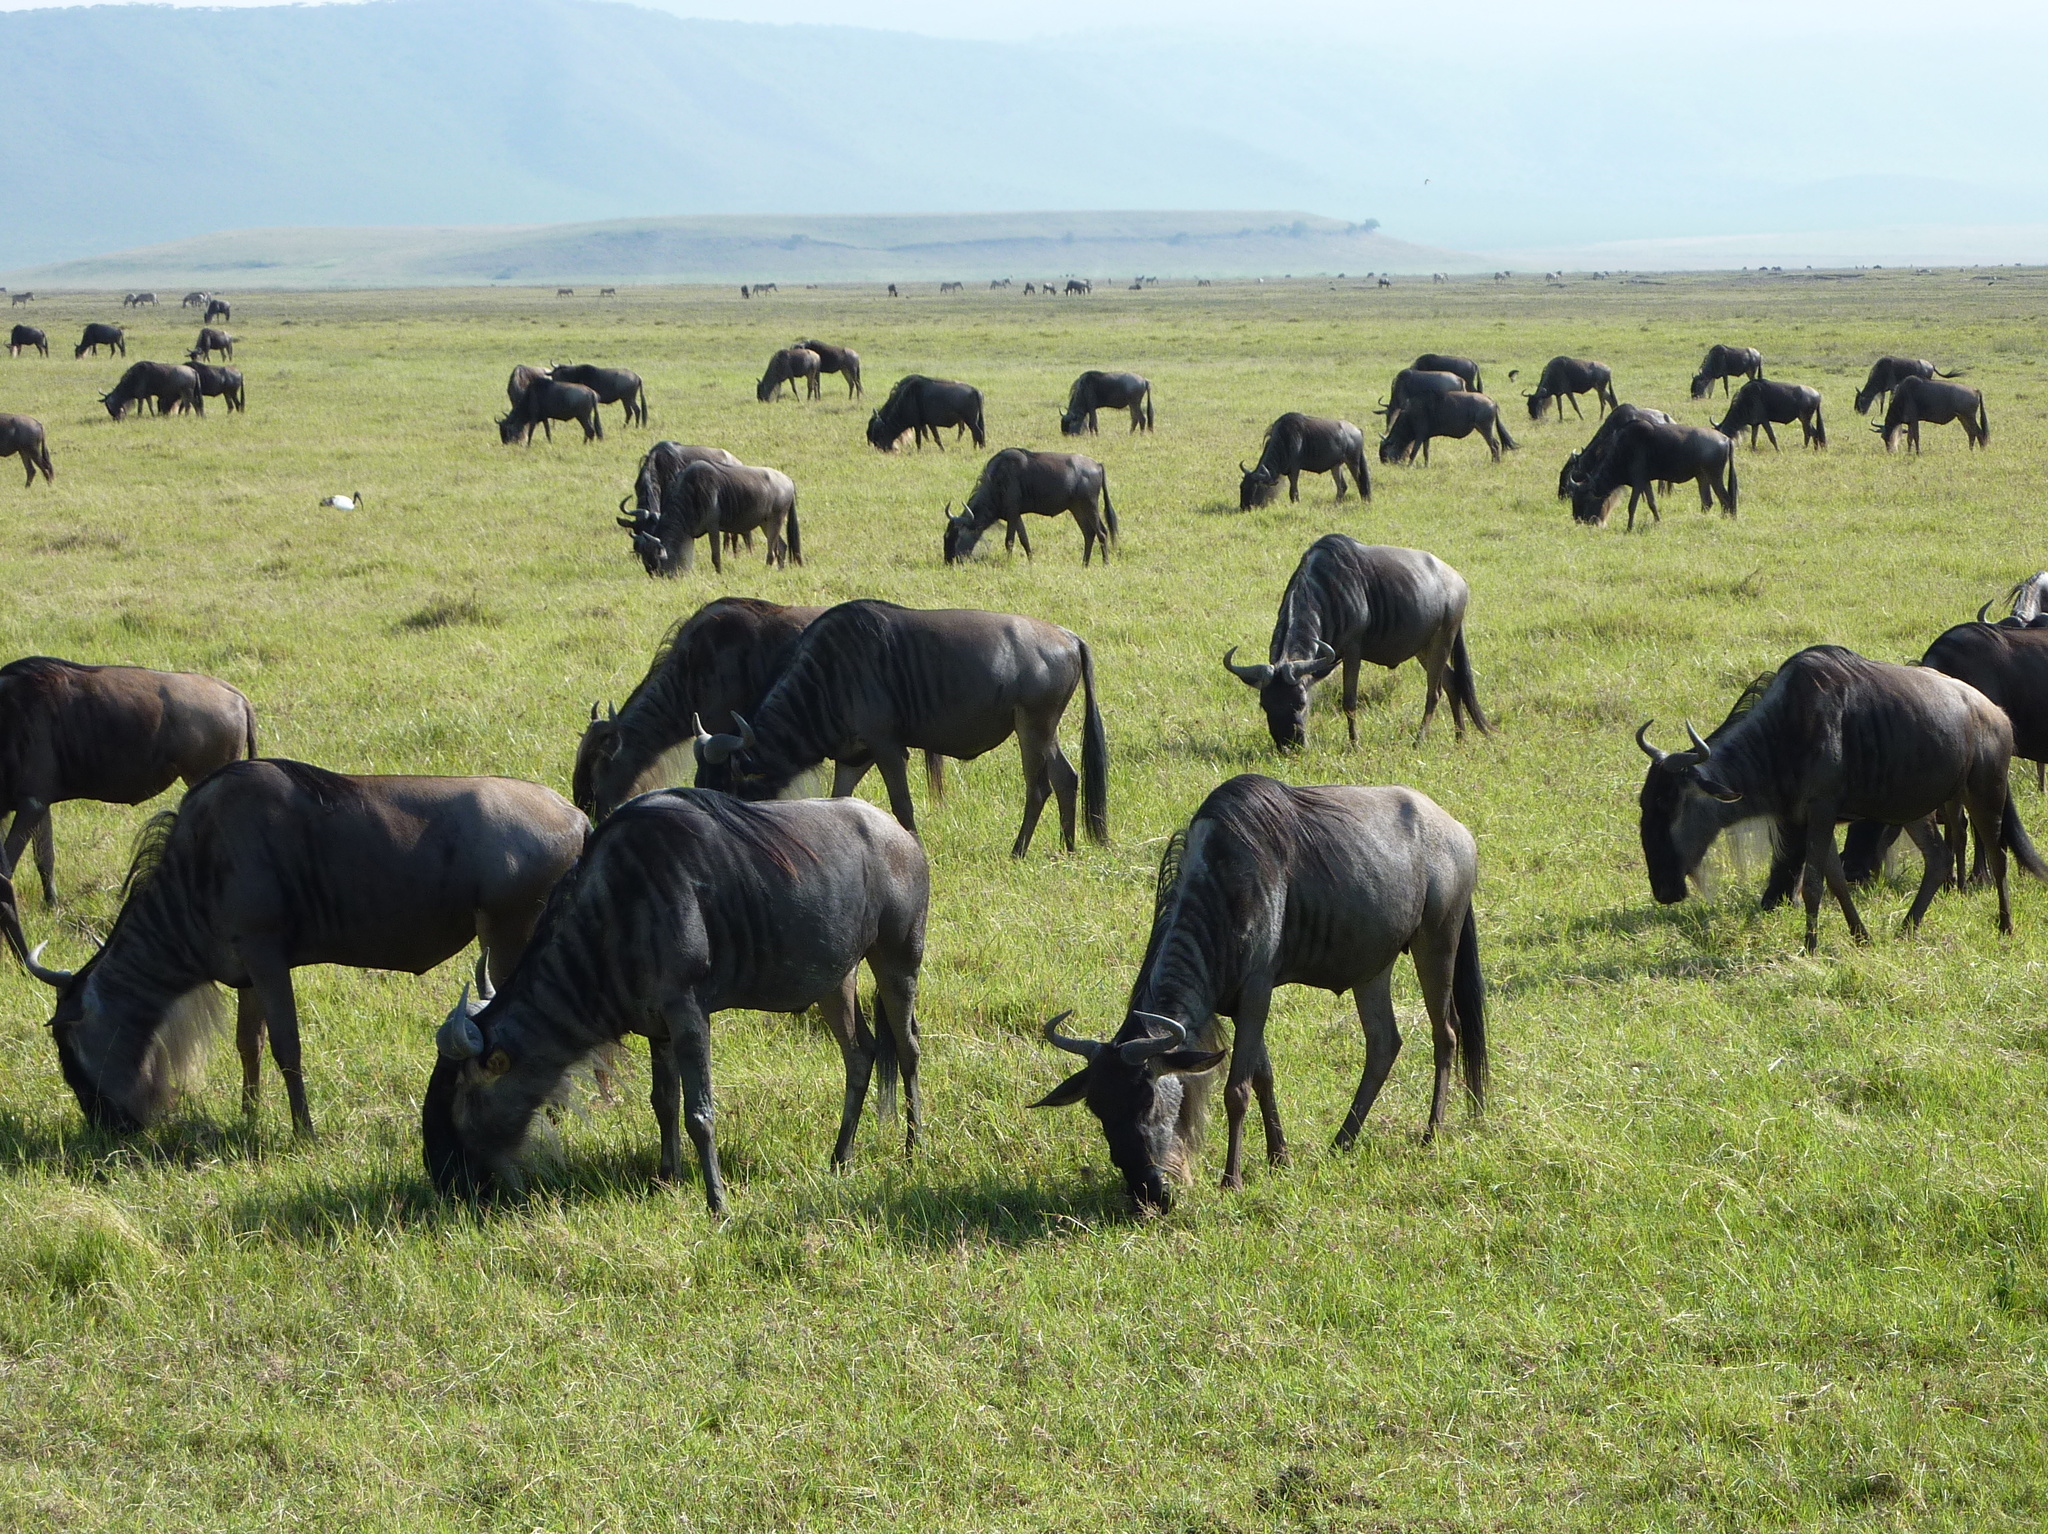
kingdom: Animalia
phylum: Chordata
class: Mammalia
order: Artiodactyla
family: Bovidae
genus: Connochaetes
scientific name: Connochaetes taurinus
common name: Blue wildebeest
